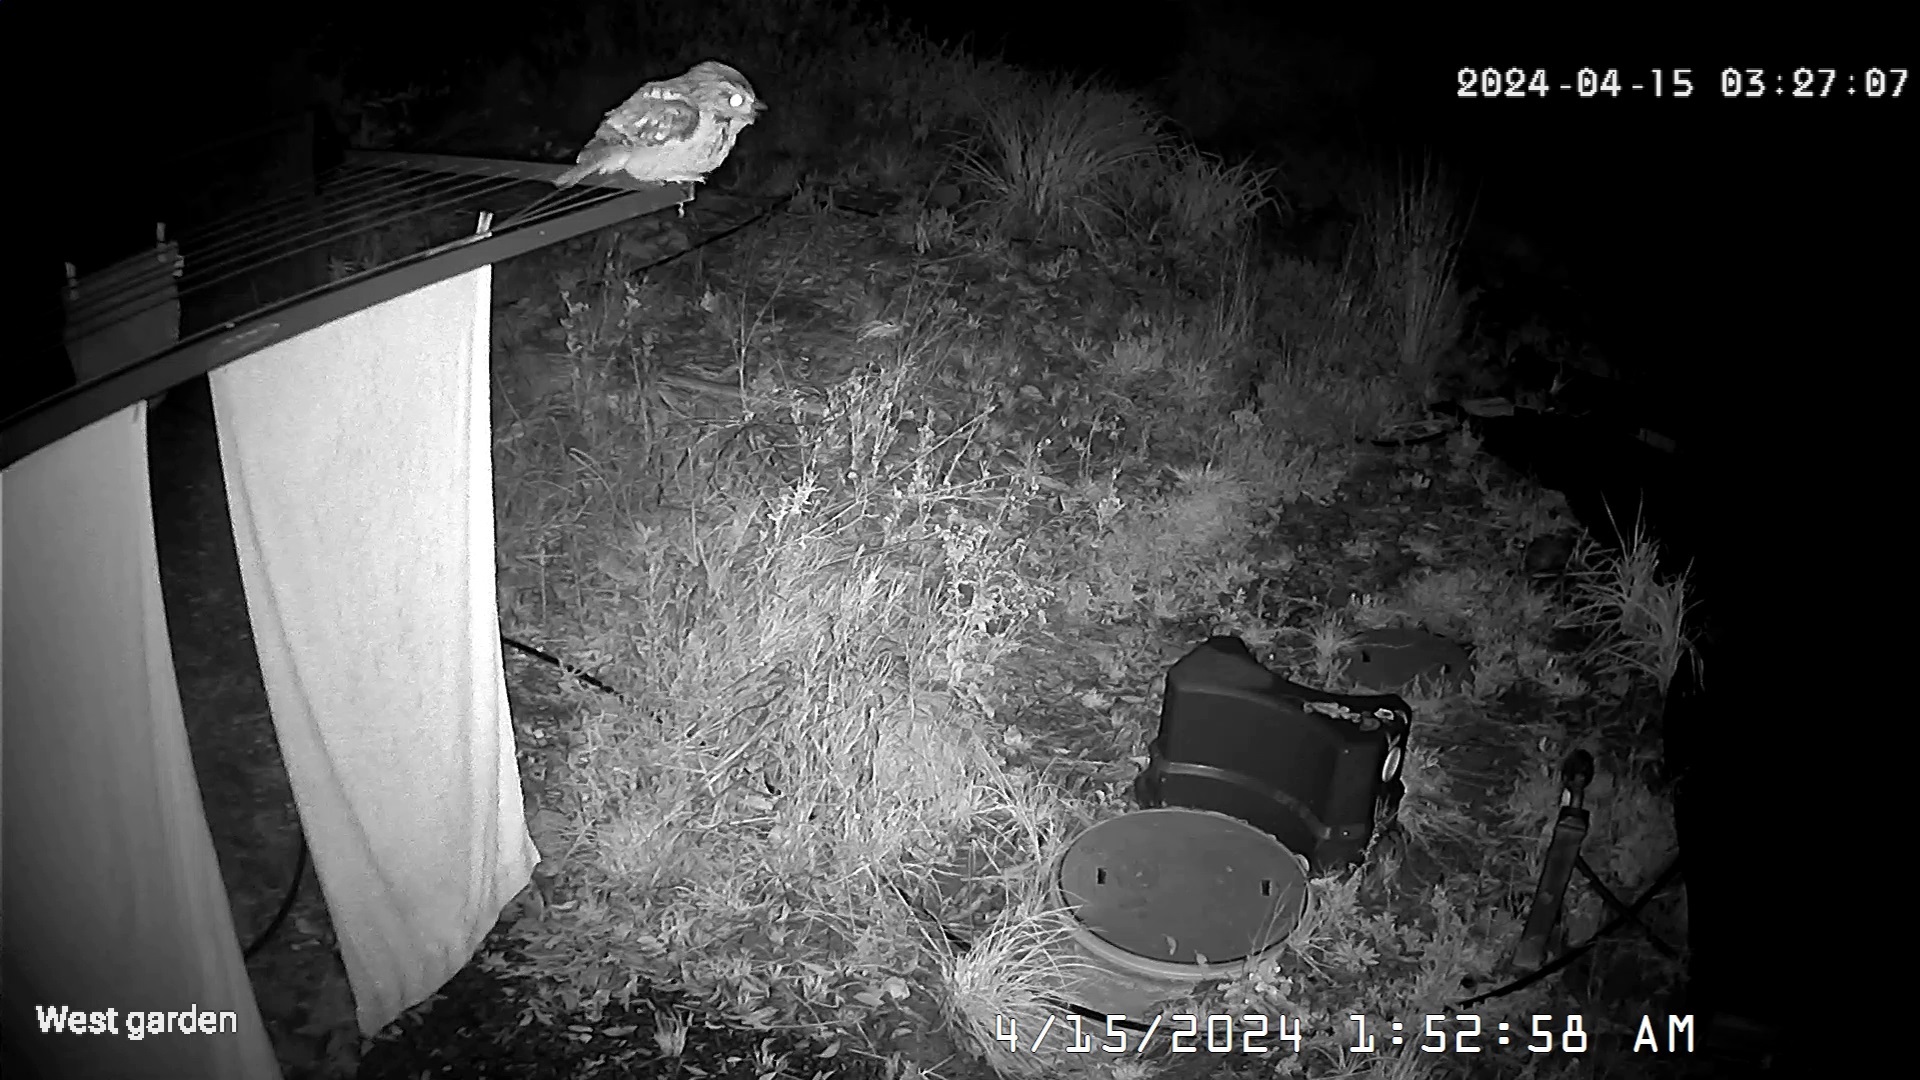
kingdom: Animalia
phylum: Chordata
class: Aves
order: Caprimulgiformes
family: Podargidae
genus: Podargus
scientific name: Podargus strigoides
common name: Tawny frogmouth
